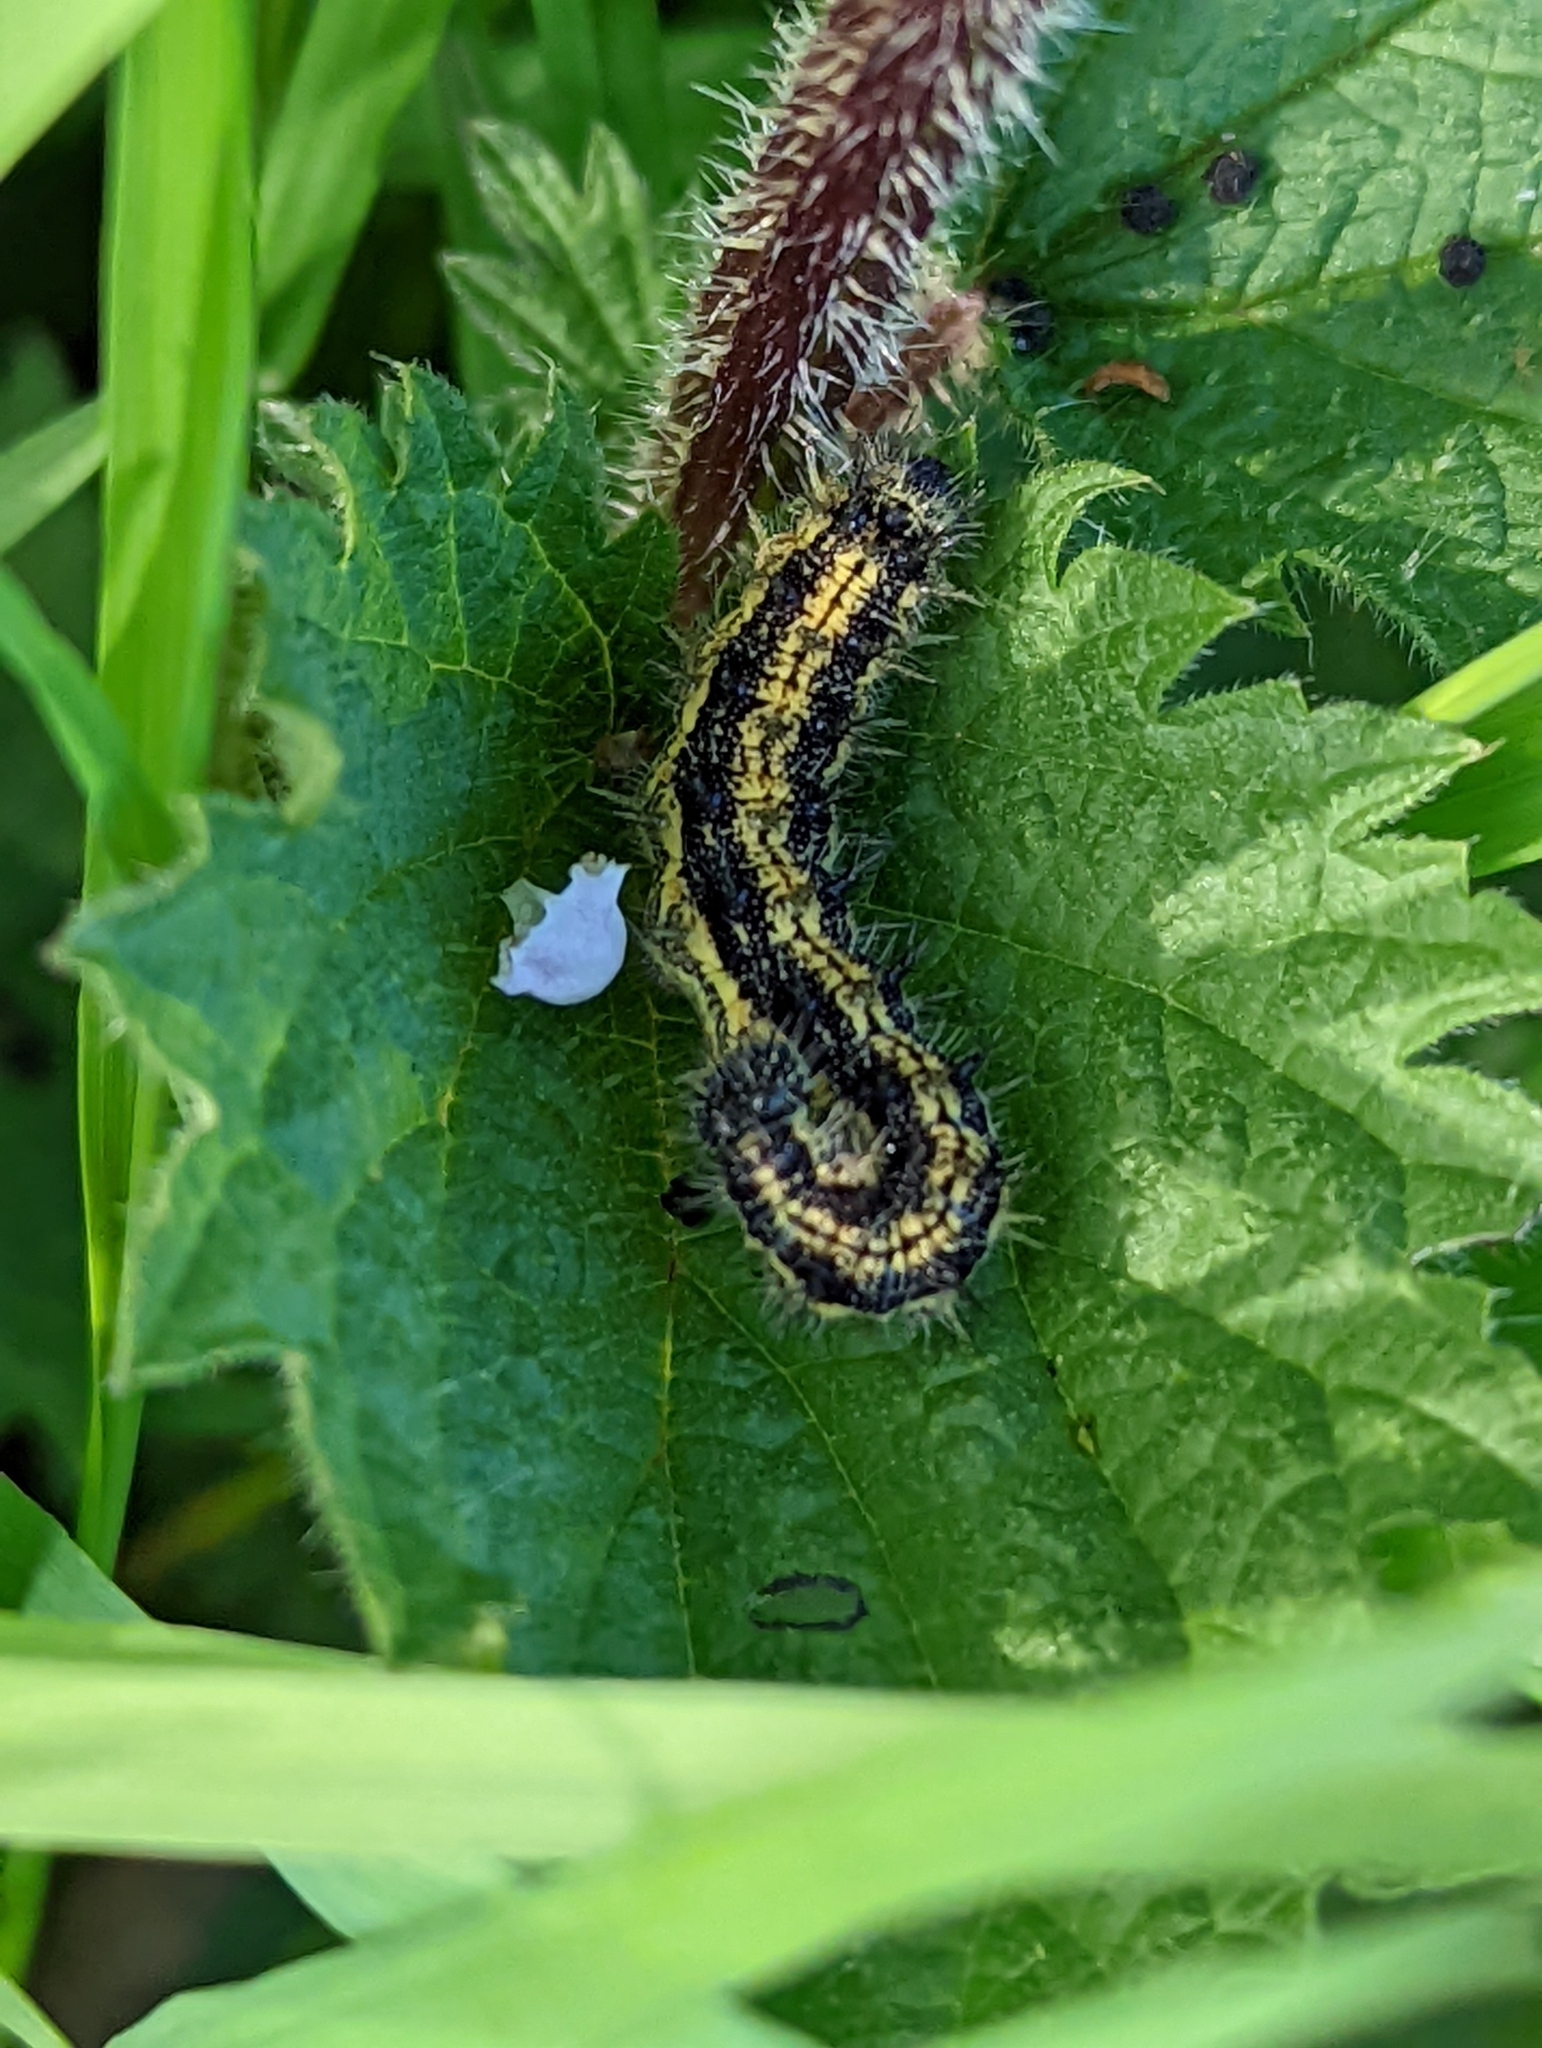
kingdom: Animalia
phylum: Arthropoda
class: Insecta
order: Lepidoptera
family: Nymphalidae
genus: Aglais
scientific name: Aglais urticae
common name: Small tortoiseshell
